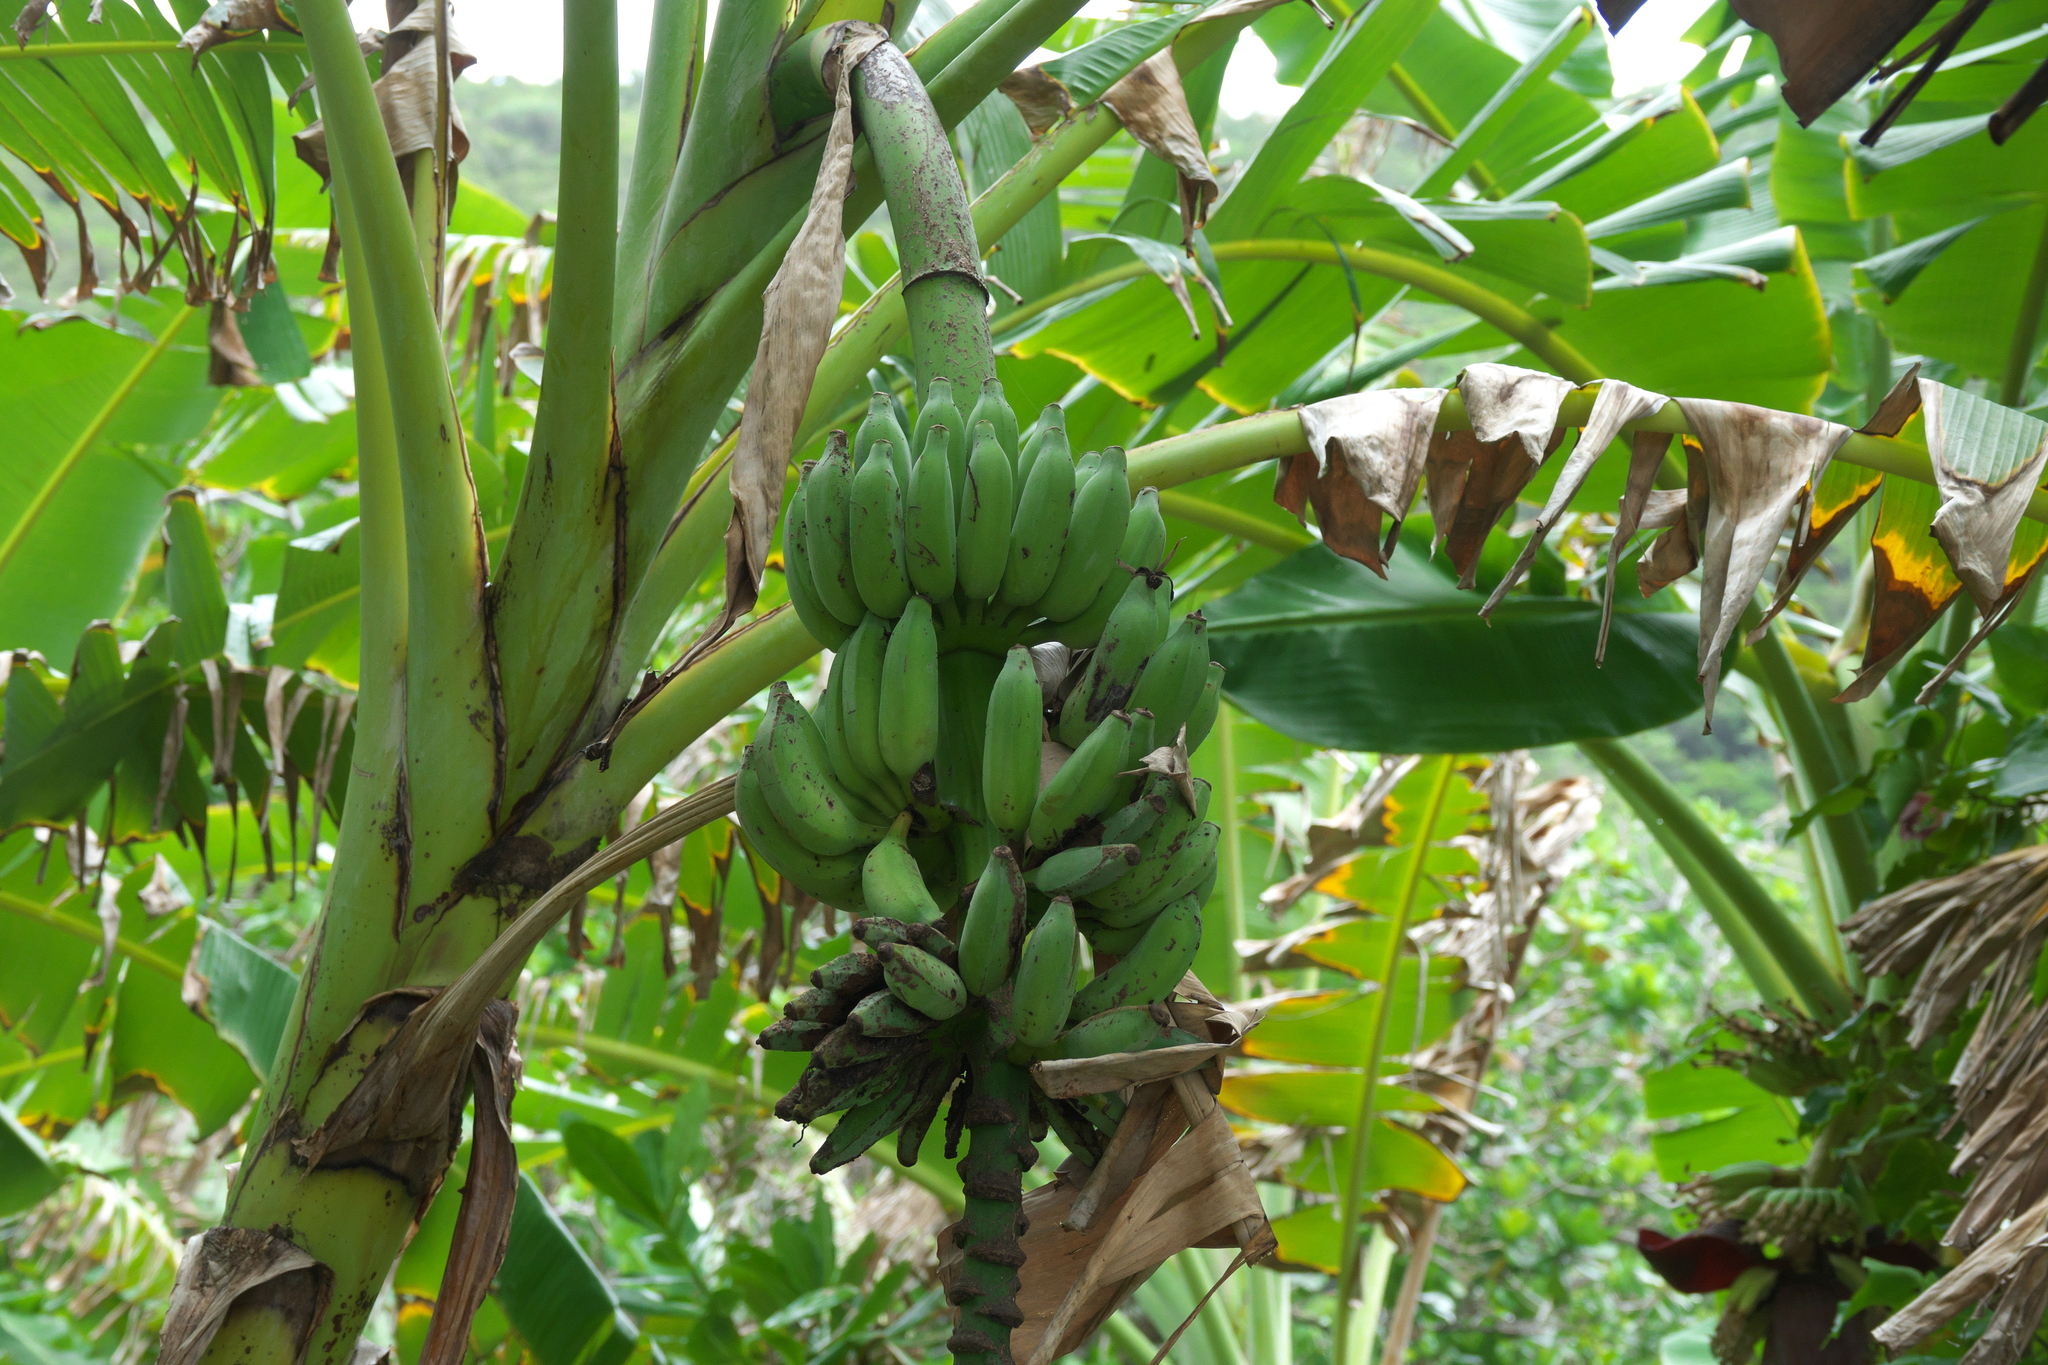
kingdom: Plantae
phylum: Tracheophyta
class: Liliopsida
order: Zingiberales
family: Musaceae
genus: Musa
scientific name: Musa paradisiaca
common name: French plantain
